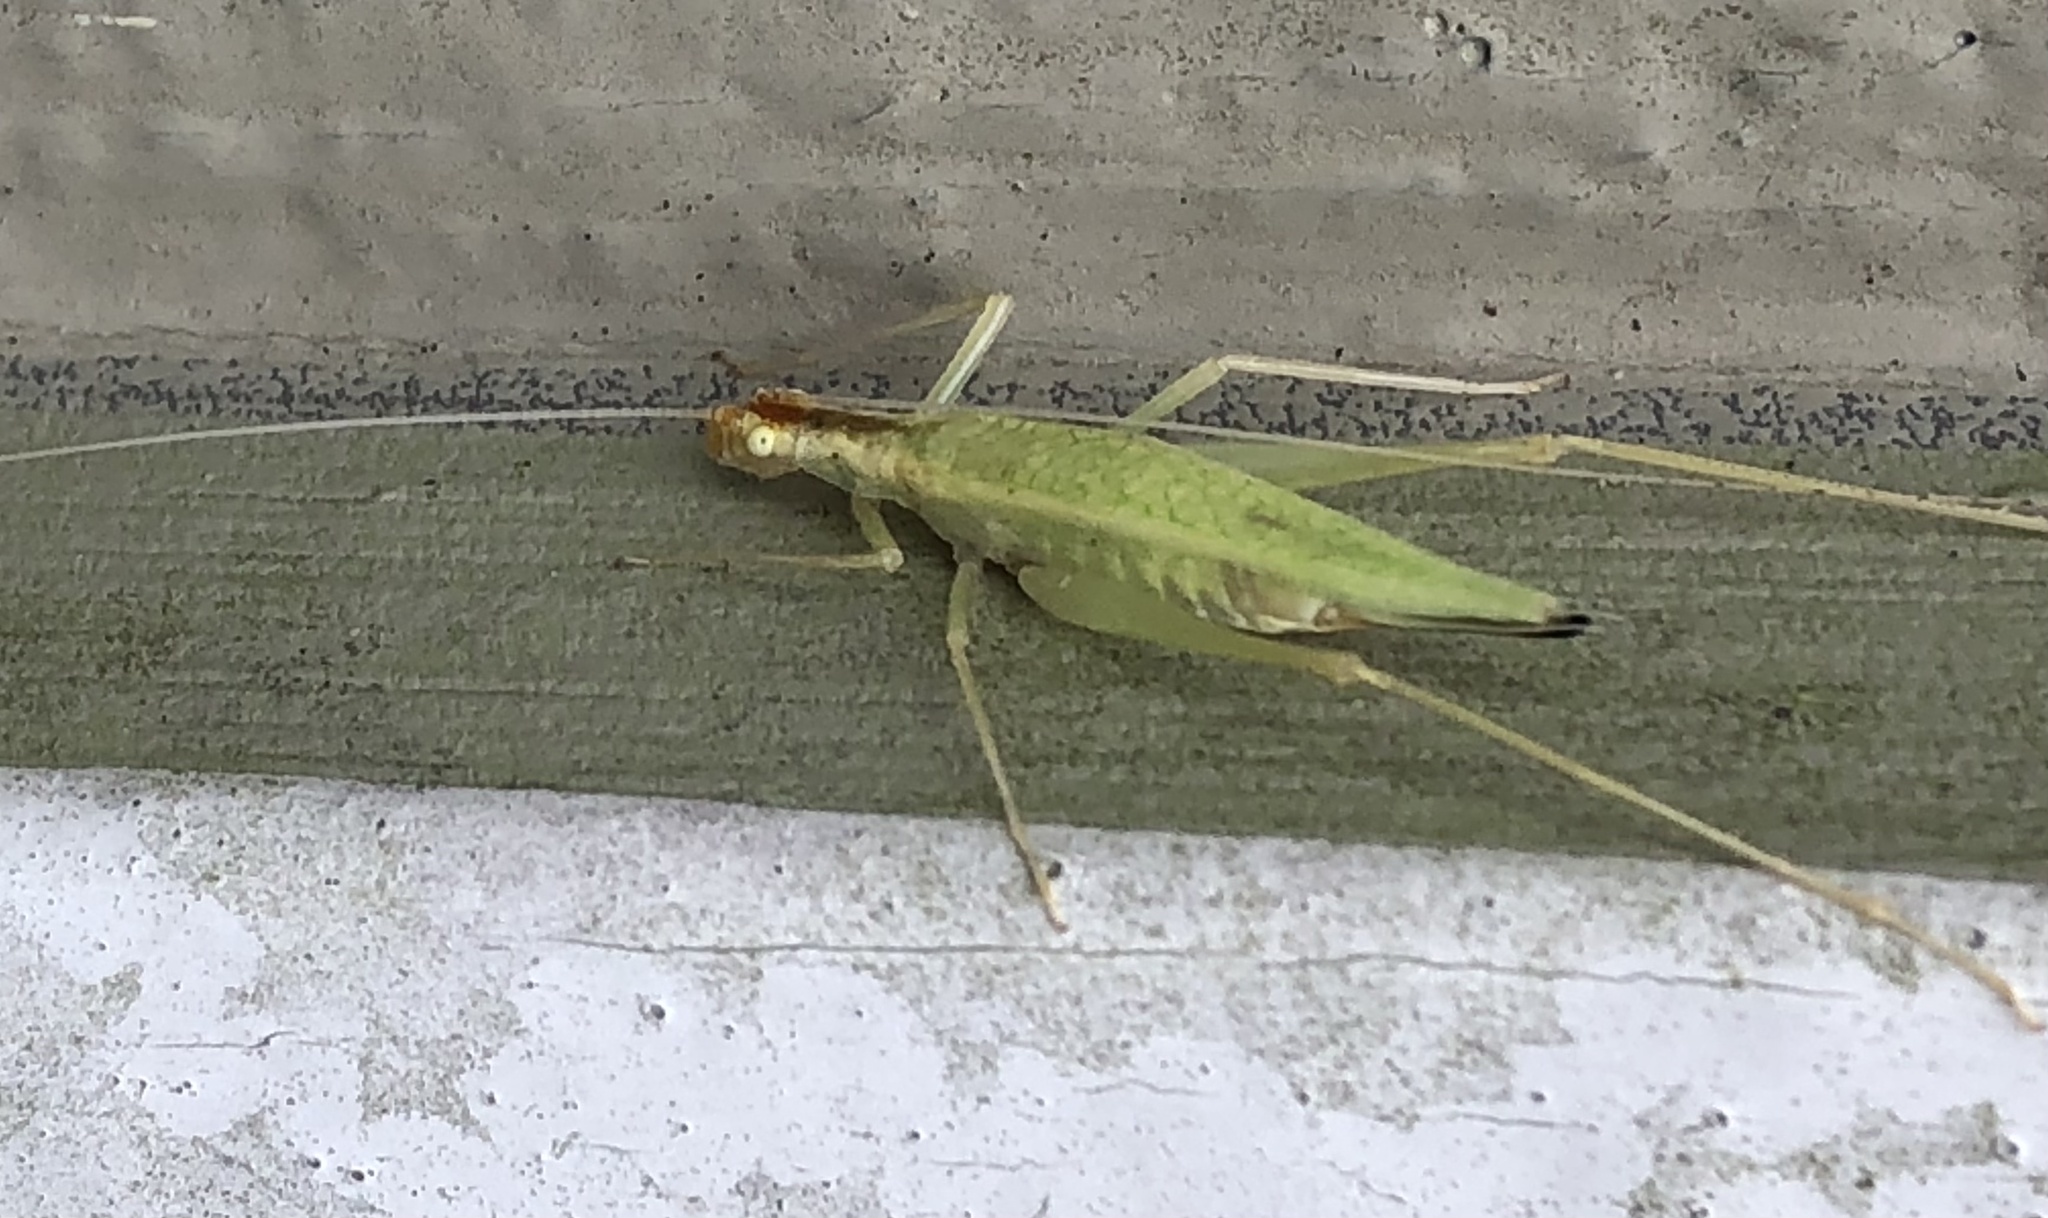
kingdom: Animalia
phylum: Arthropoda
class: Insecta
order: Orthoptera
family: Gryllidae
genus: Oecanthus
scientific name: Oecanthus niveus
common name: Narrow-winged tree cricket
